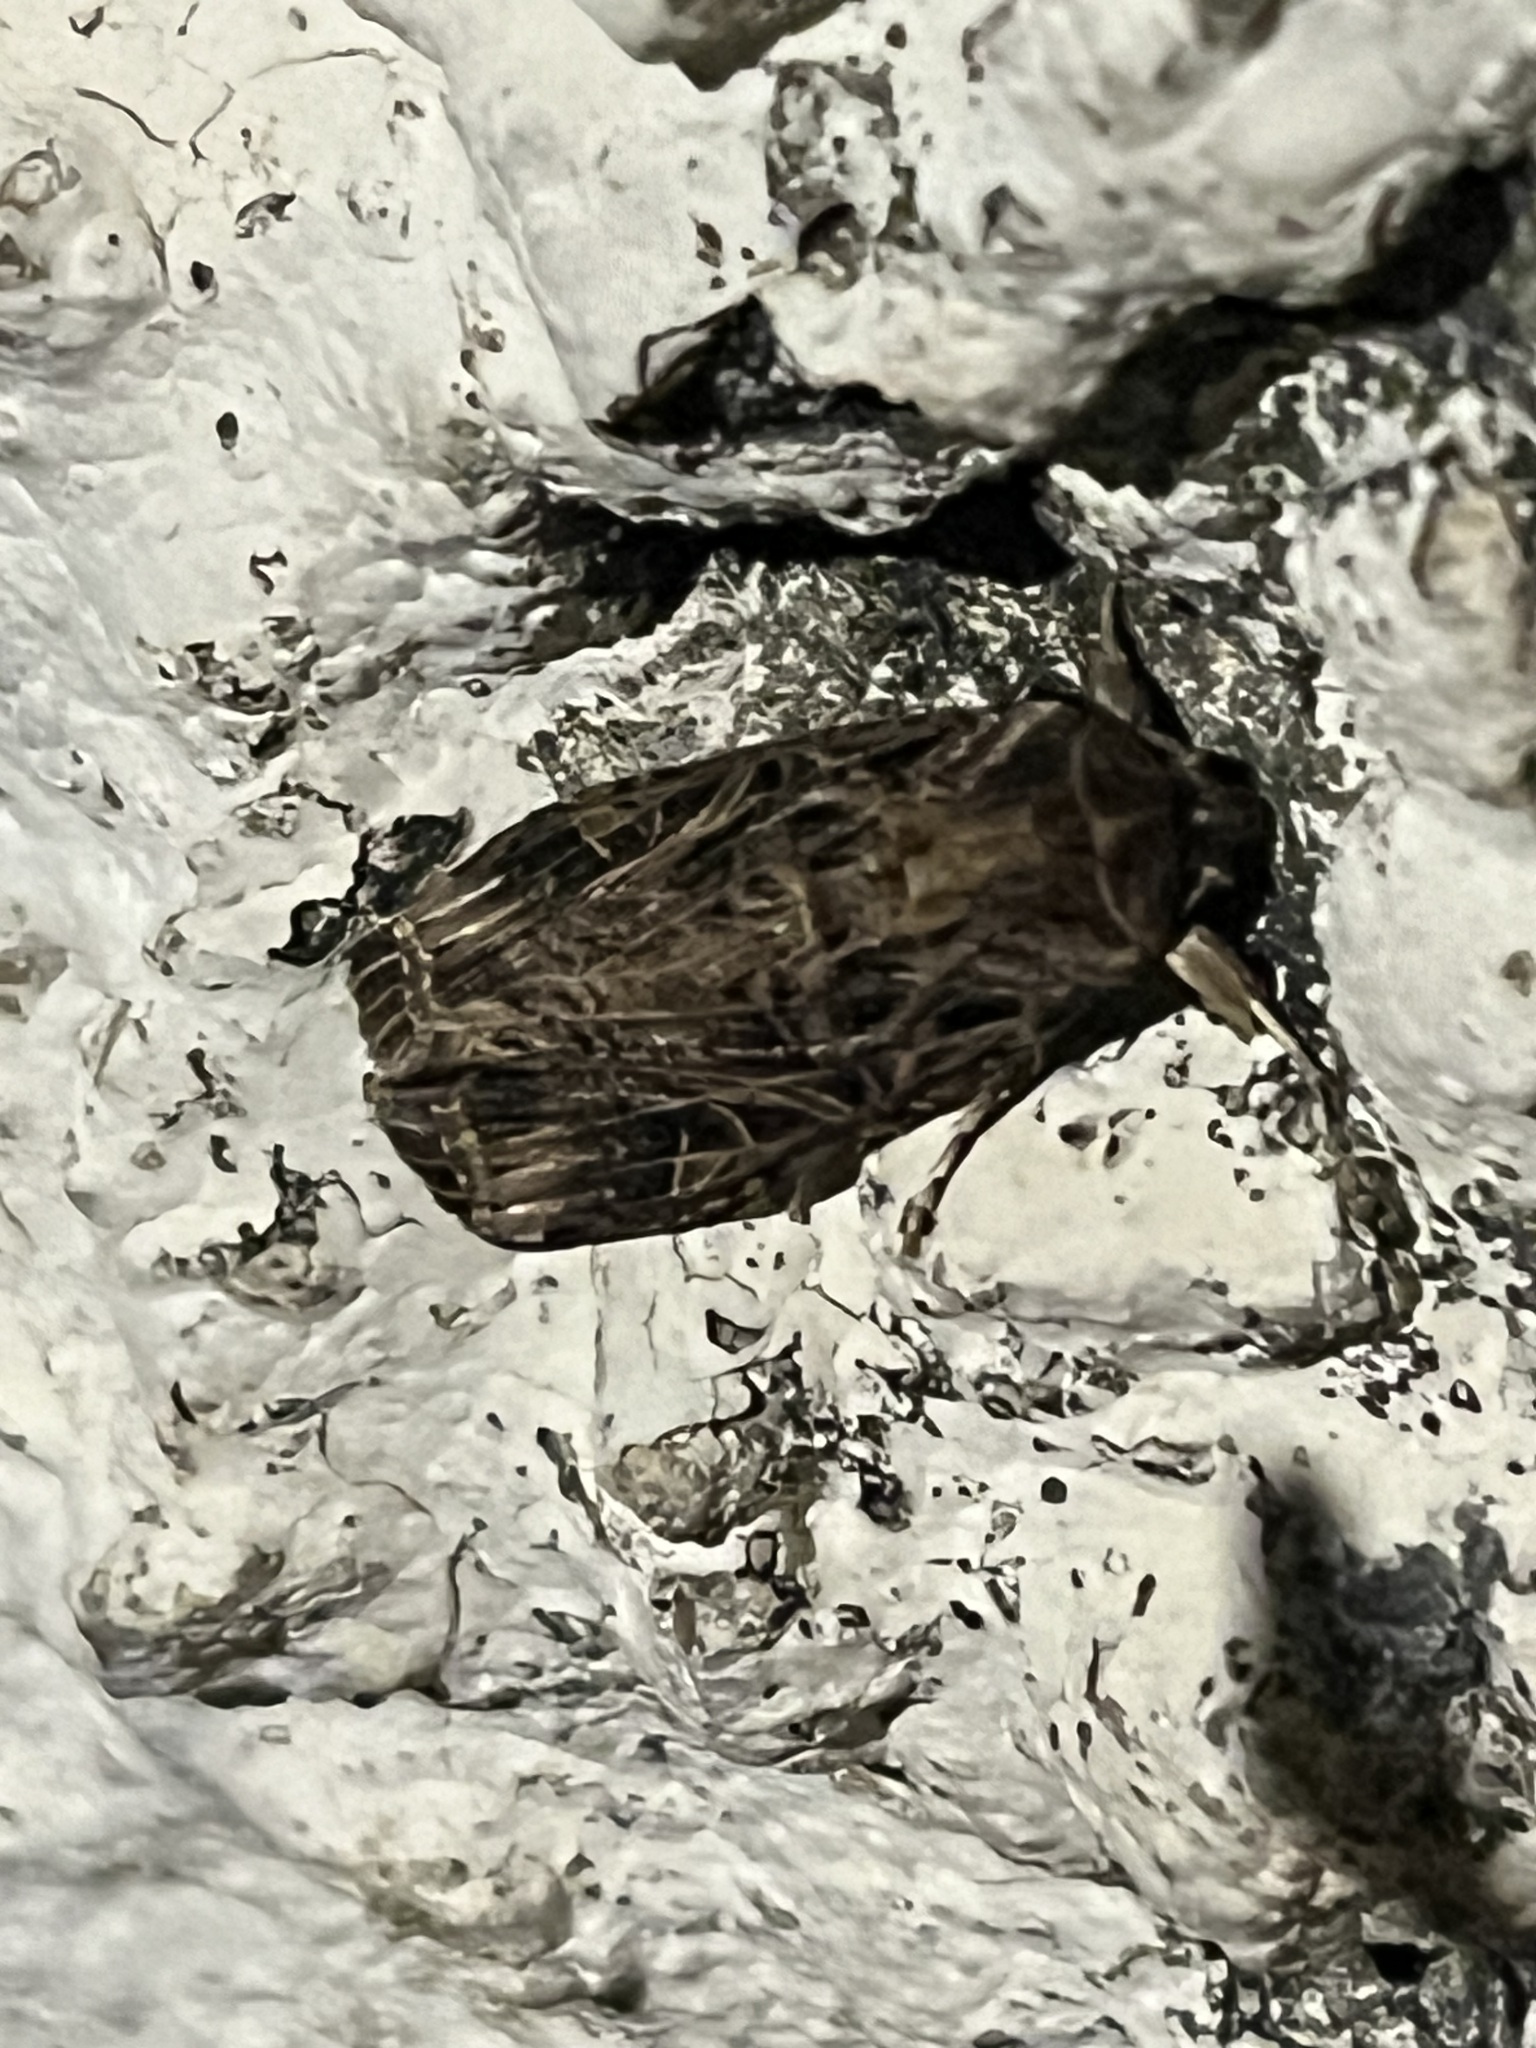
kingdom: Animalia
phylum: Arthropoda
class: Insecta
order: Lepidoptera
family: Noctuidae
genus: Spodoptera
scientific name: Spodoptera littoralis
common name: Egyptian cotton leafworm
